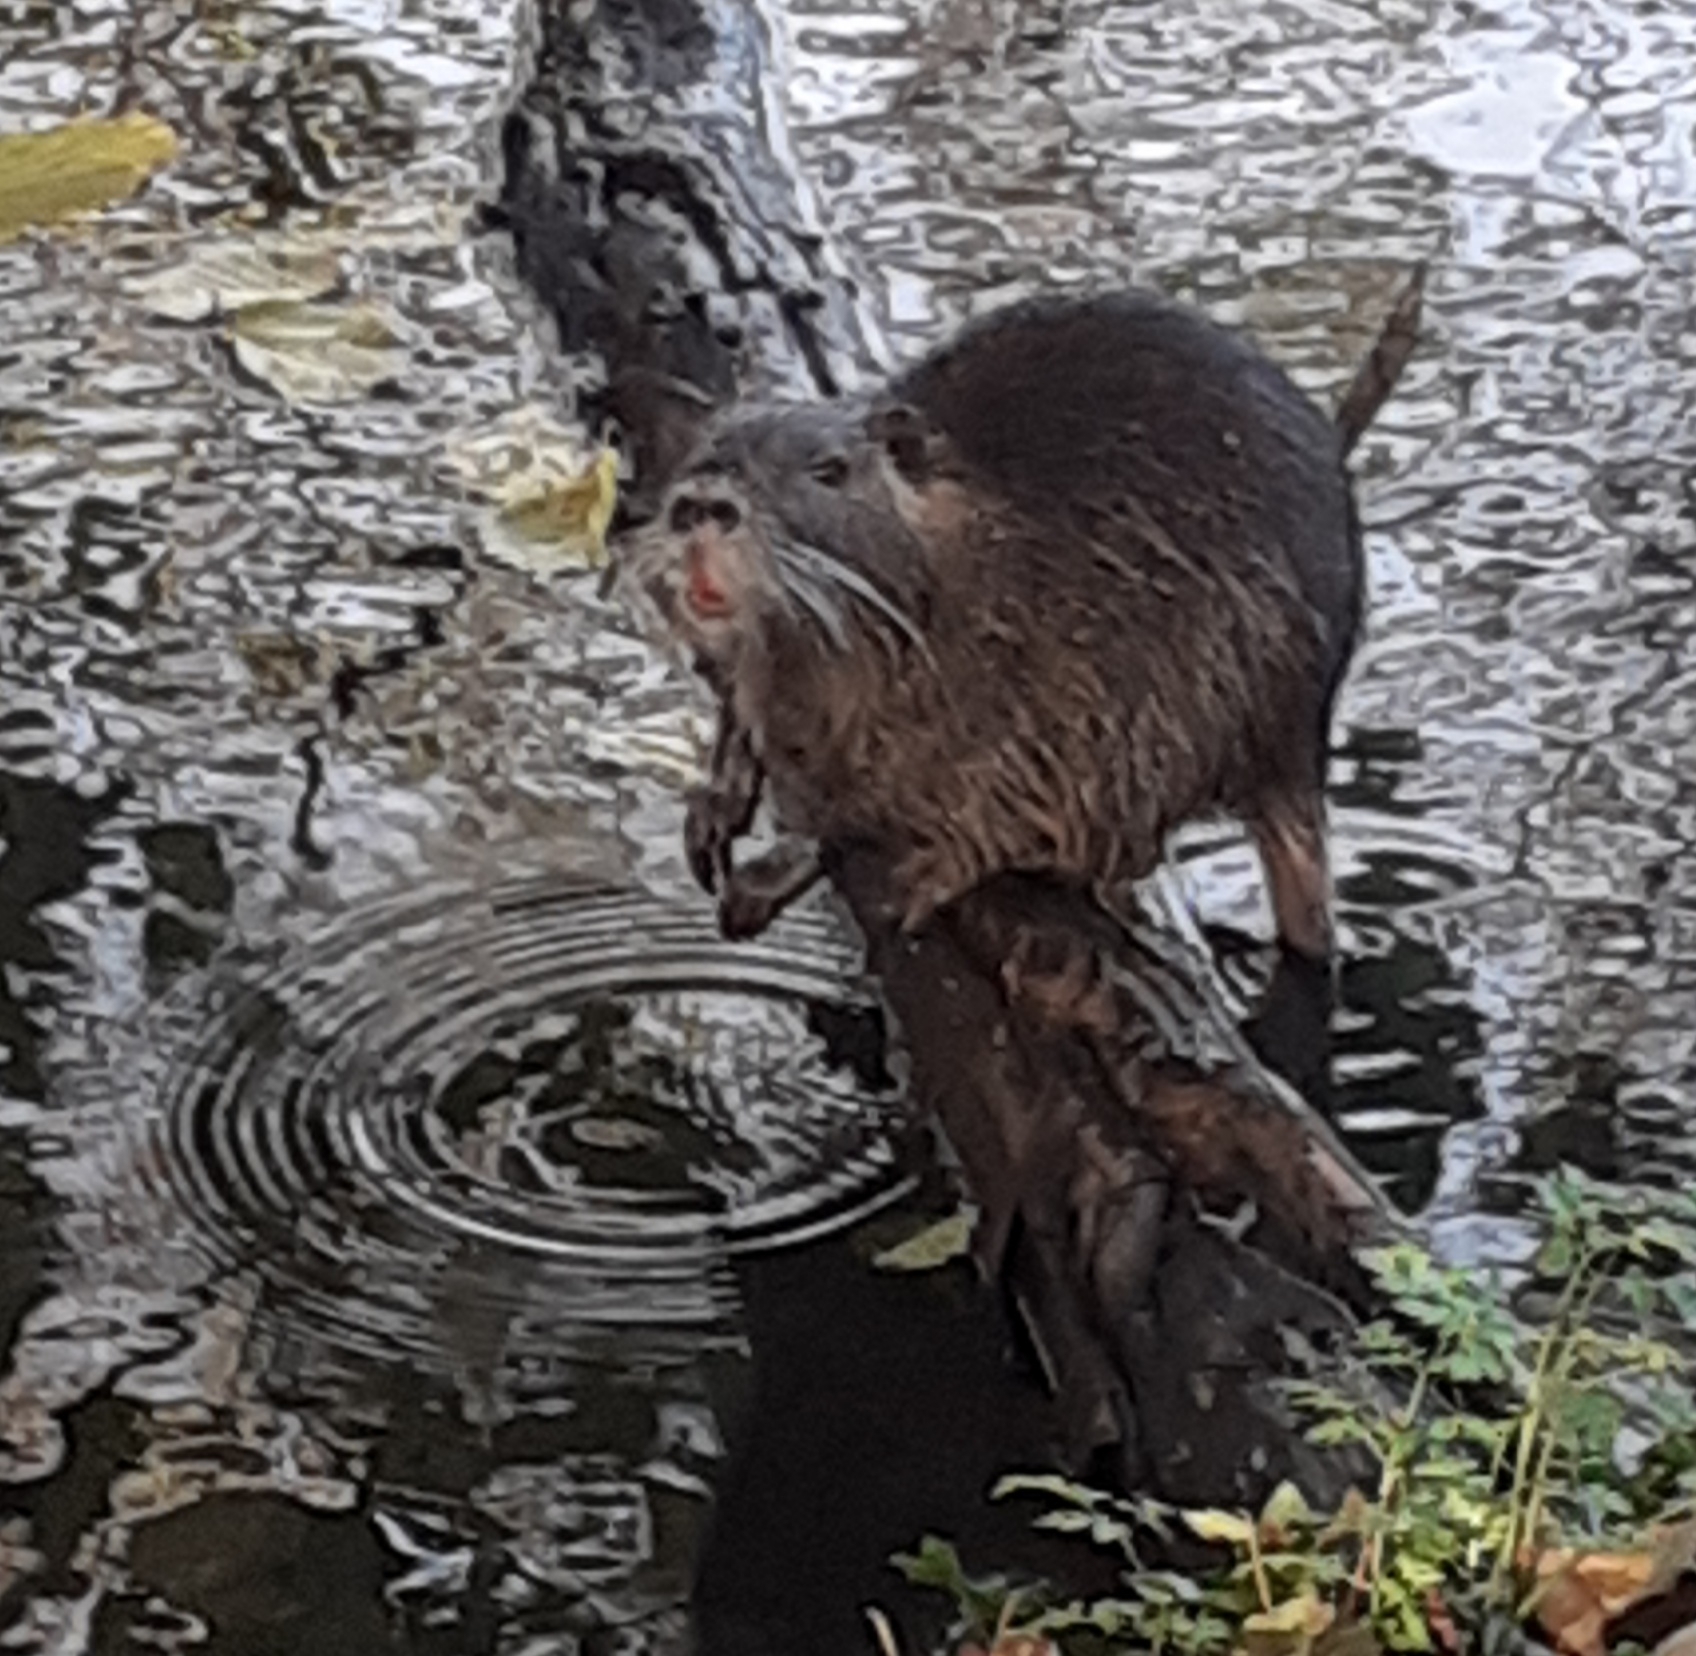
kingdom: Animalia
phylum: Chordata
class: Mammalia
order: Rodentia
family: Myocastoridae
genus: Myocastor
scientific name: Myocastor coypus
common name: Coypu
